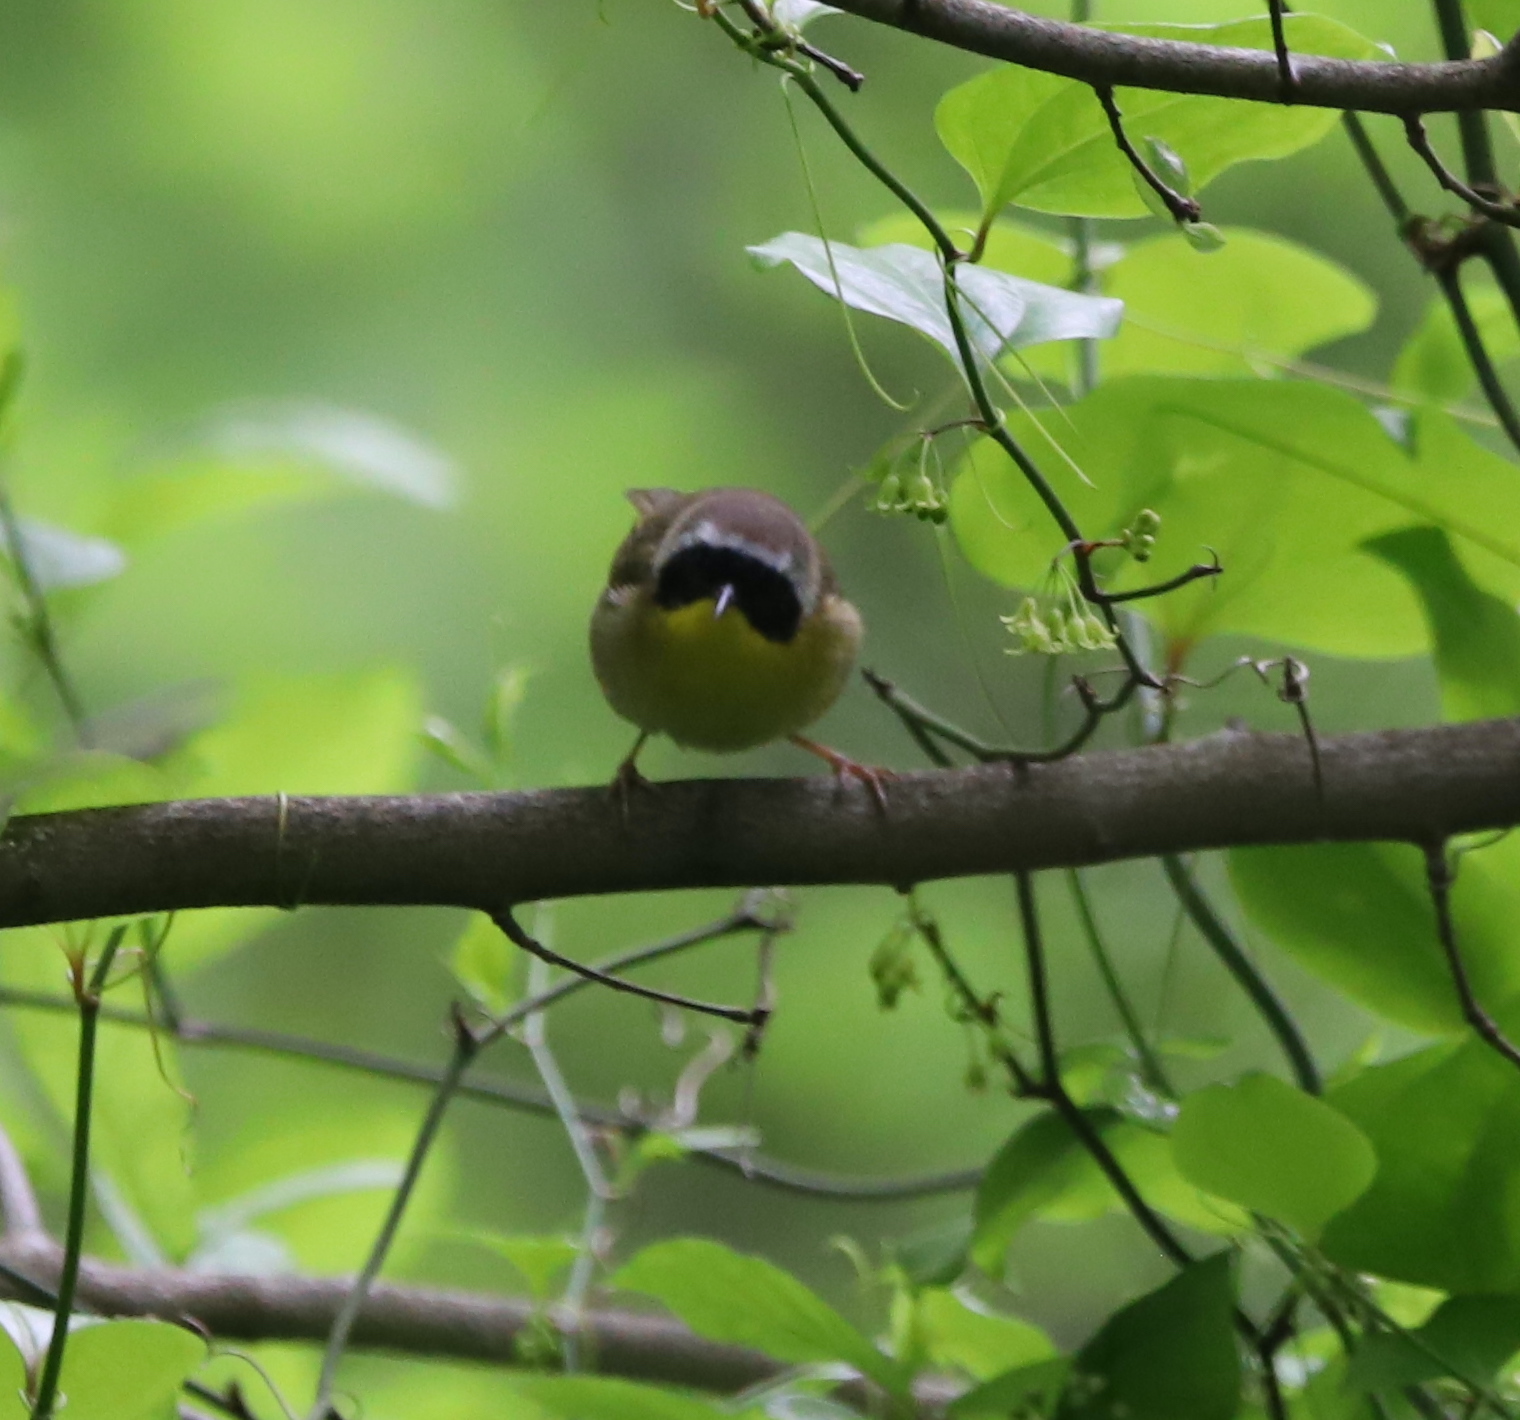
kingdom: Animalia
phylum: Chordata
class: Aves
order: Passeriformes
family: Parulidae
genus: Geothlypis
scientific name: Geothlypis trichas
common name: Common yellowthroat
